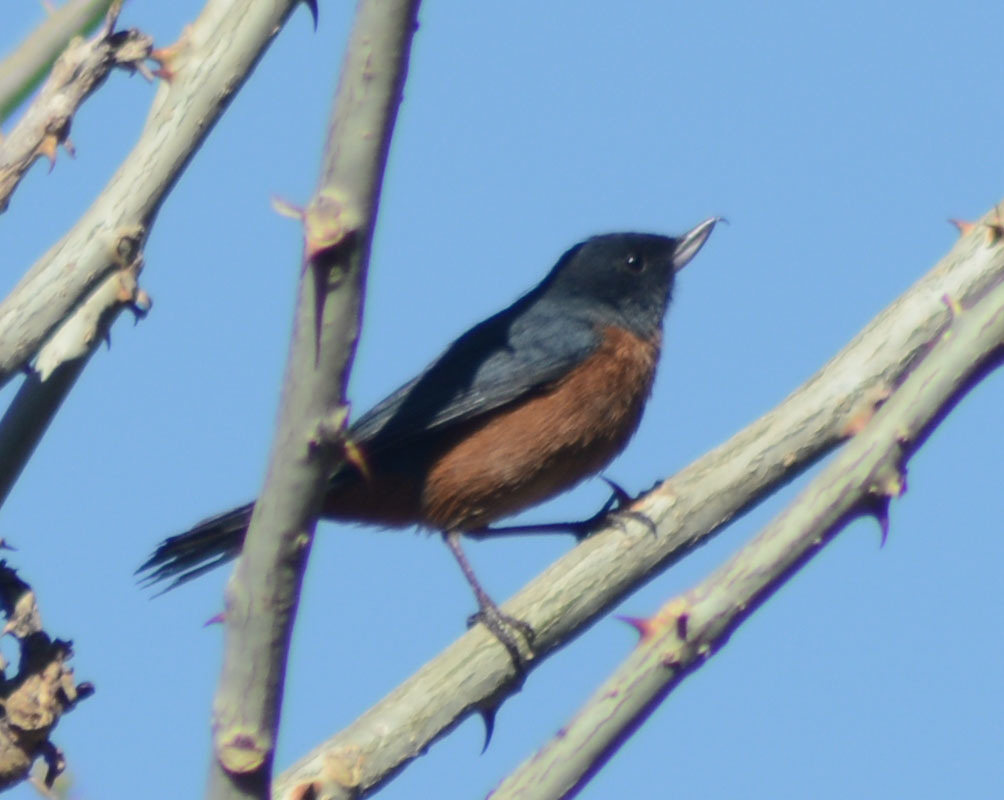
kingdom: Animalia
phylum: Chordata
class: Aves
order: Passeriformes
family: Thraupidae
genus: Diglossa
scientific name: Diglossa baritula
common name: Cinnamon-bellied flowerpiercer
